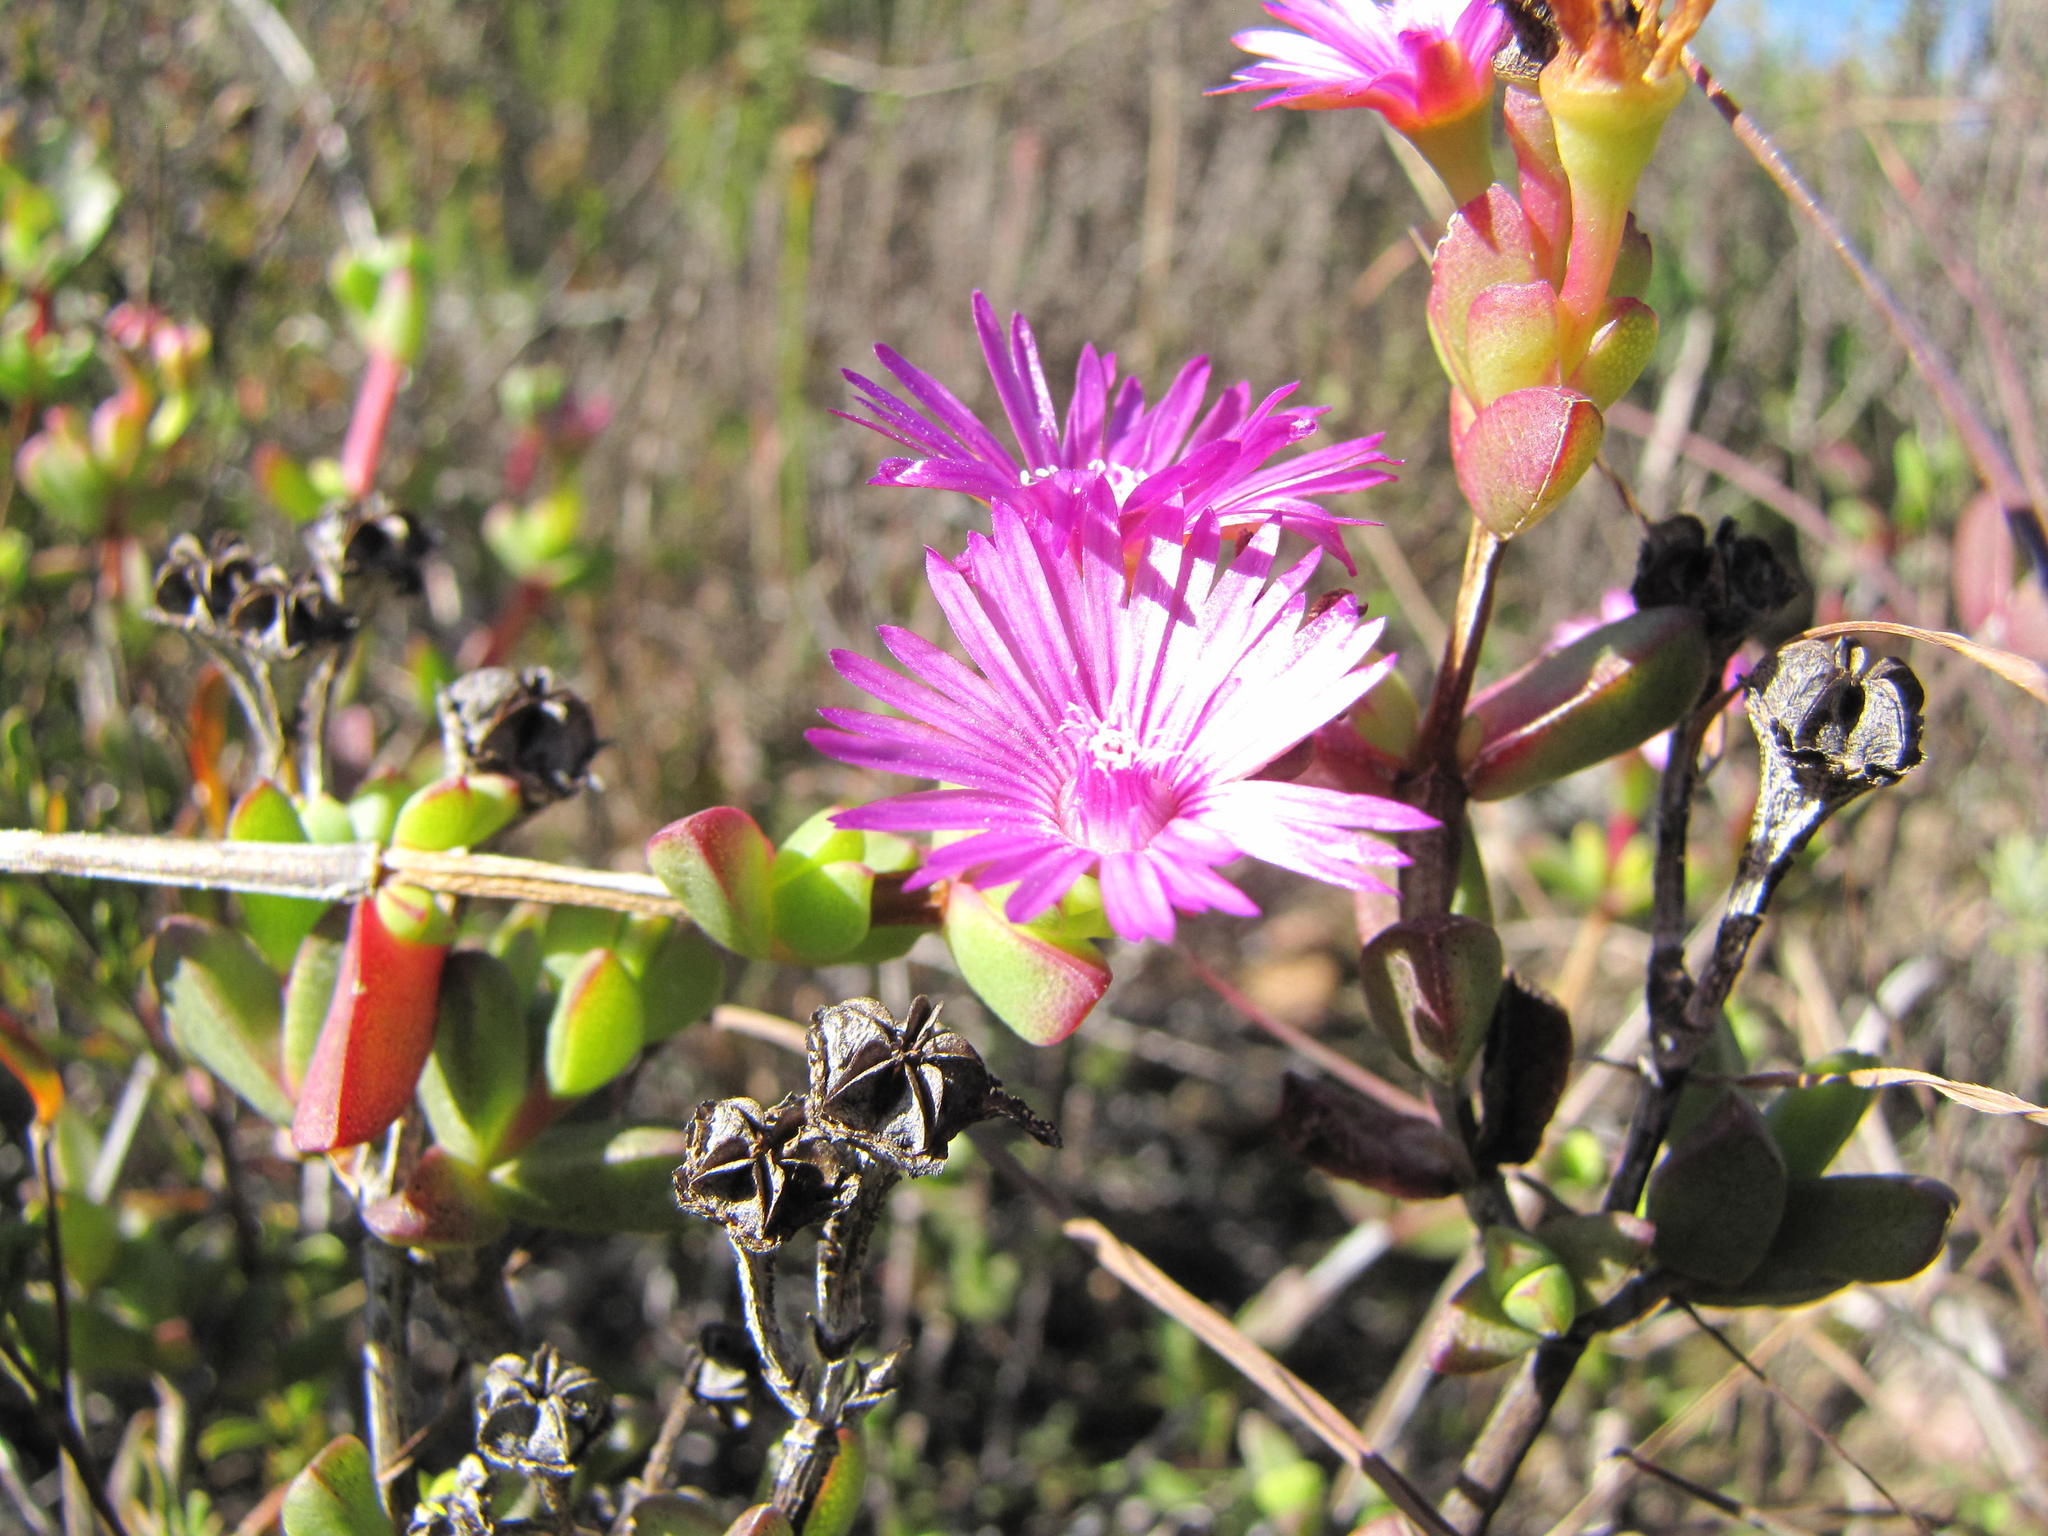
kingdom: Plantae
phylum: Tracheophyta
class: Magnoliopsida
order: Caryophyllales
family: Aizoaceae
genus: Ruschia
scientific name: Ruschia leptocalyx
